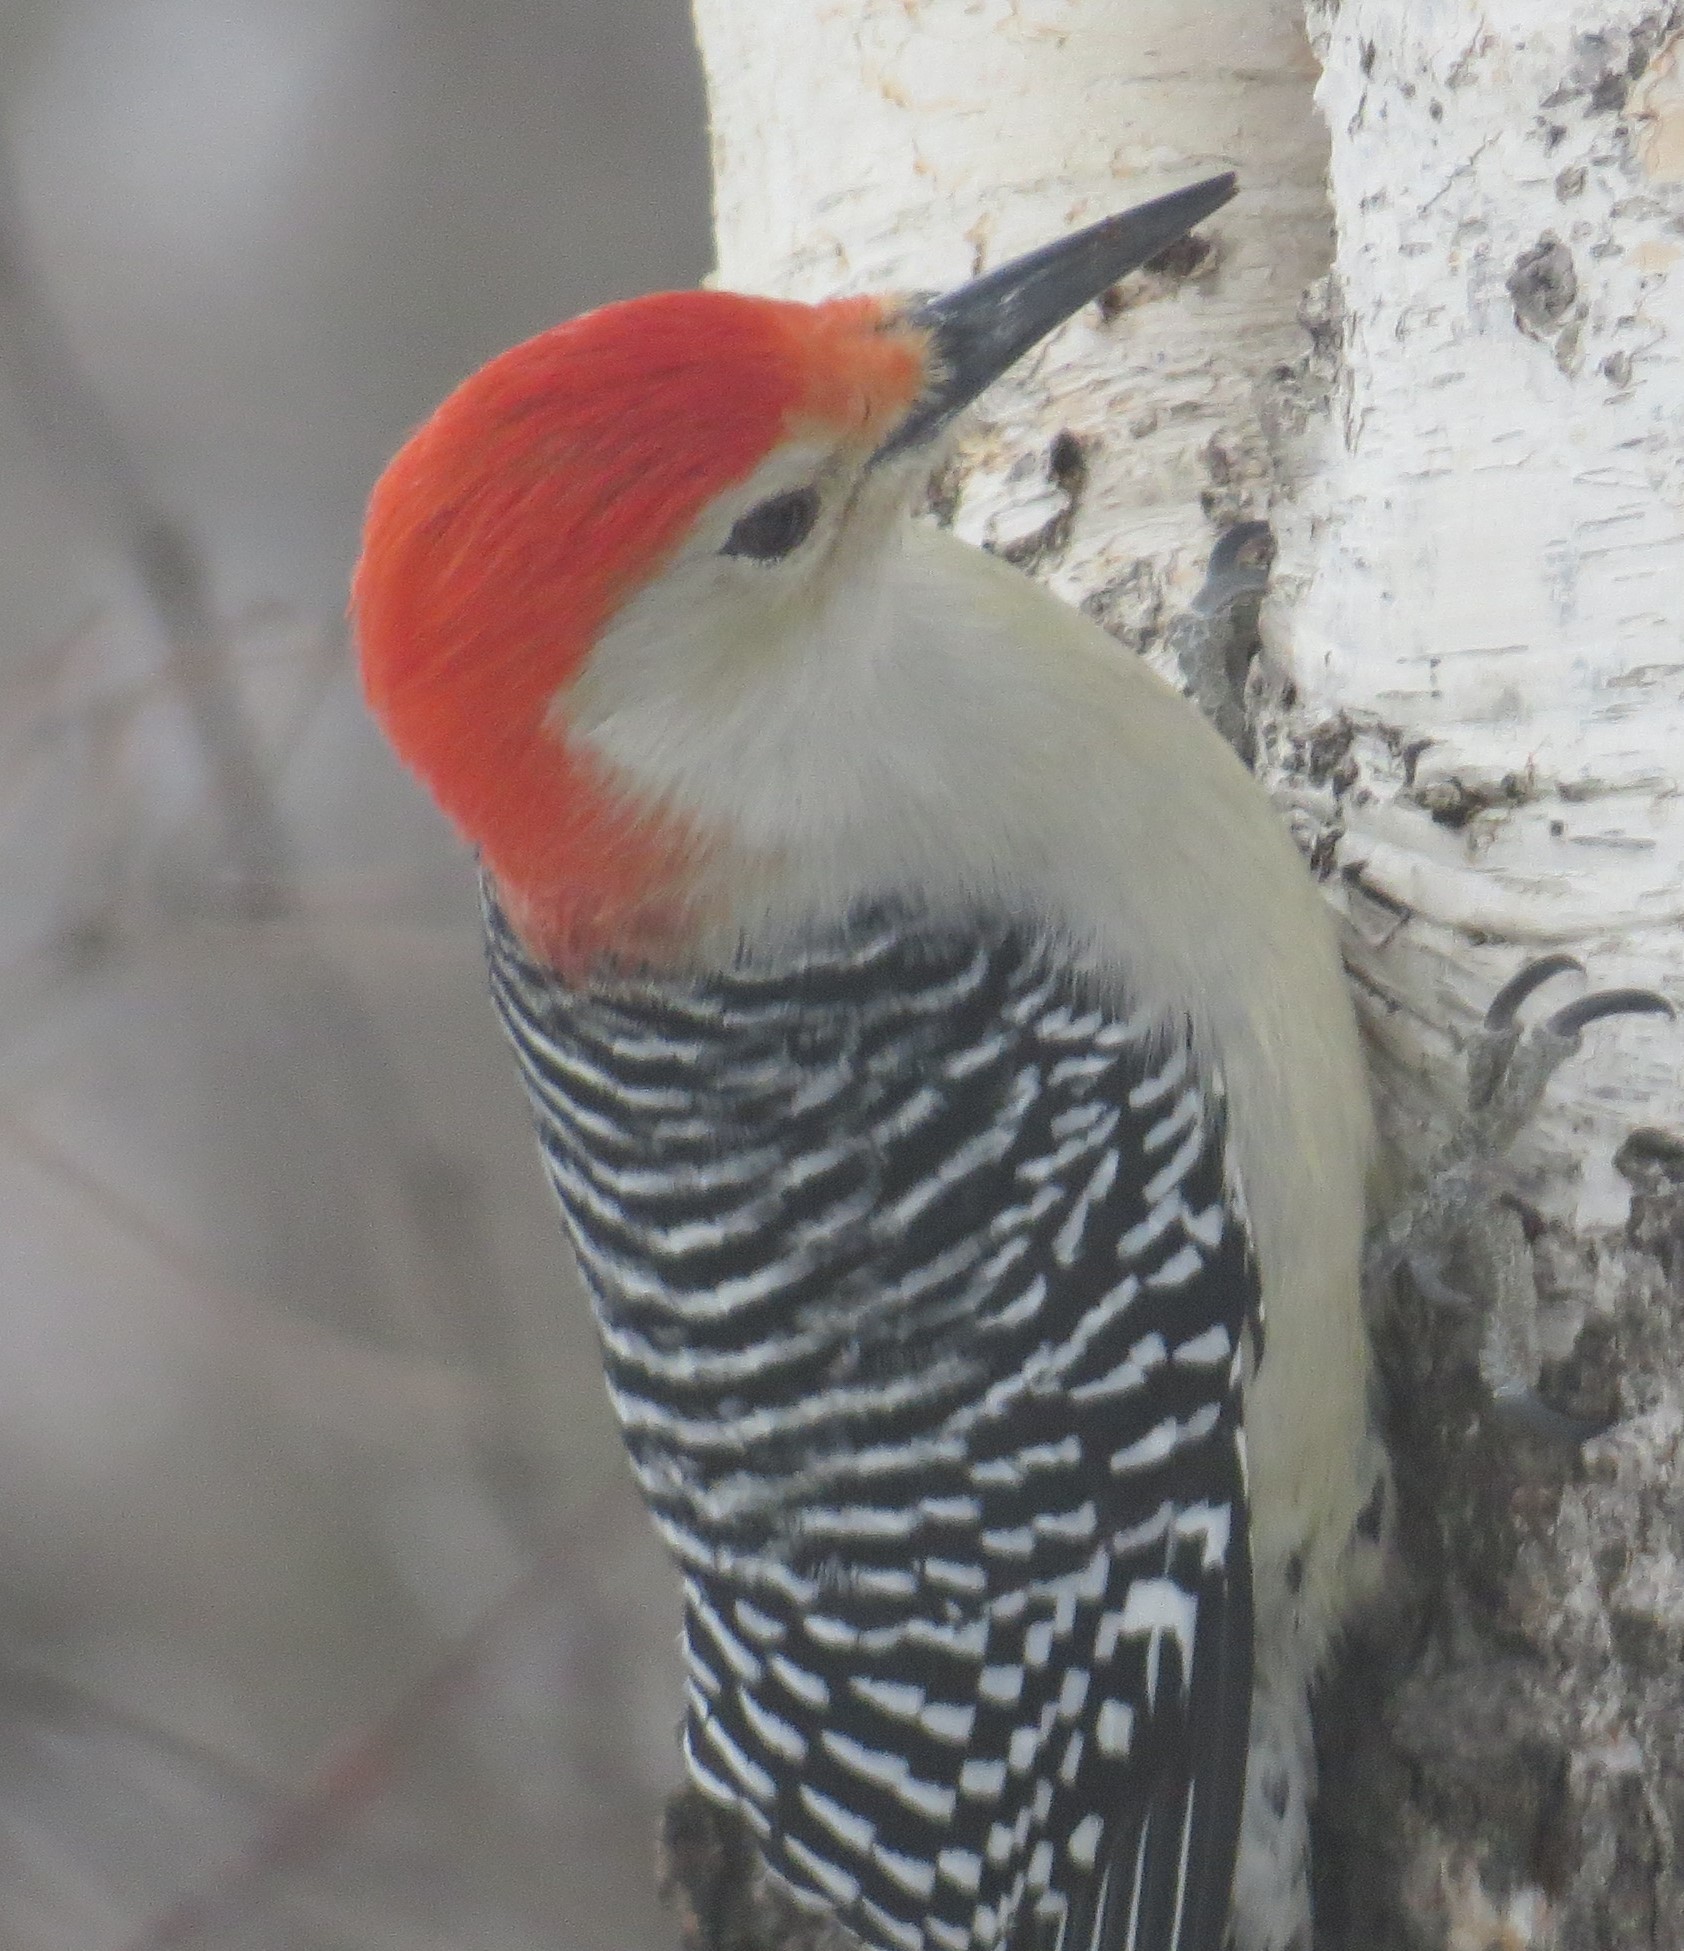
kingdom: Animalia
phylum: Chordata
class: Aves
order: Piciformes
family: Picidae
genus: Melanerpes
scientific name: Melanerpes carolinus
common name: Red-bellied woodpecker
